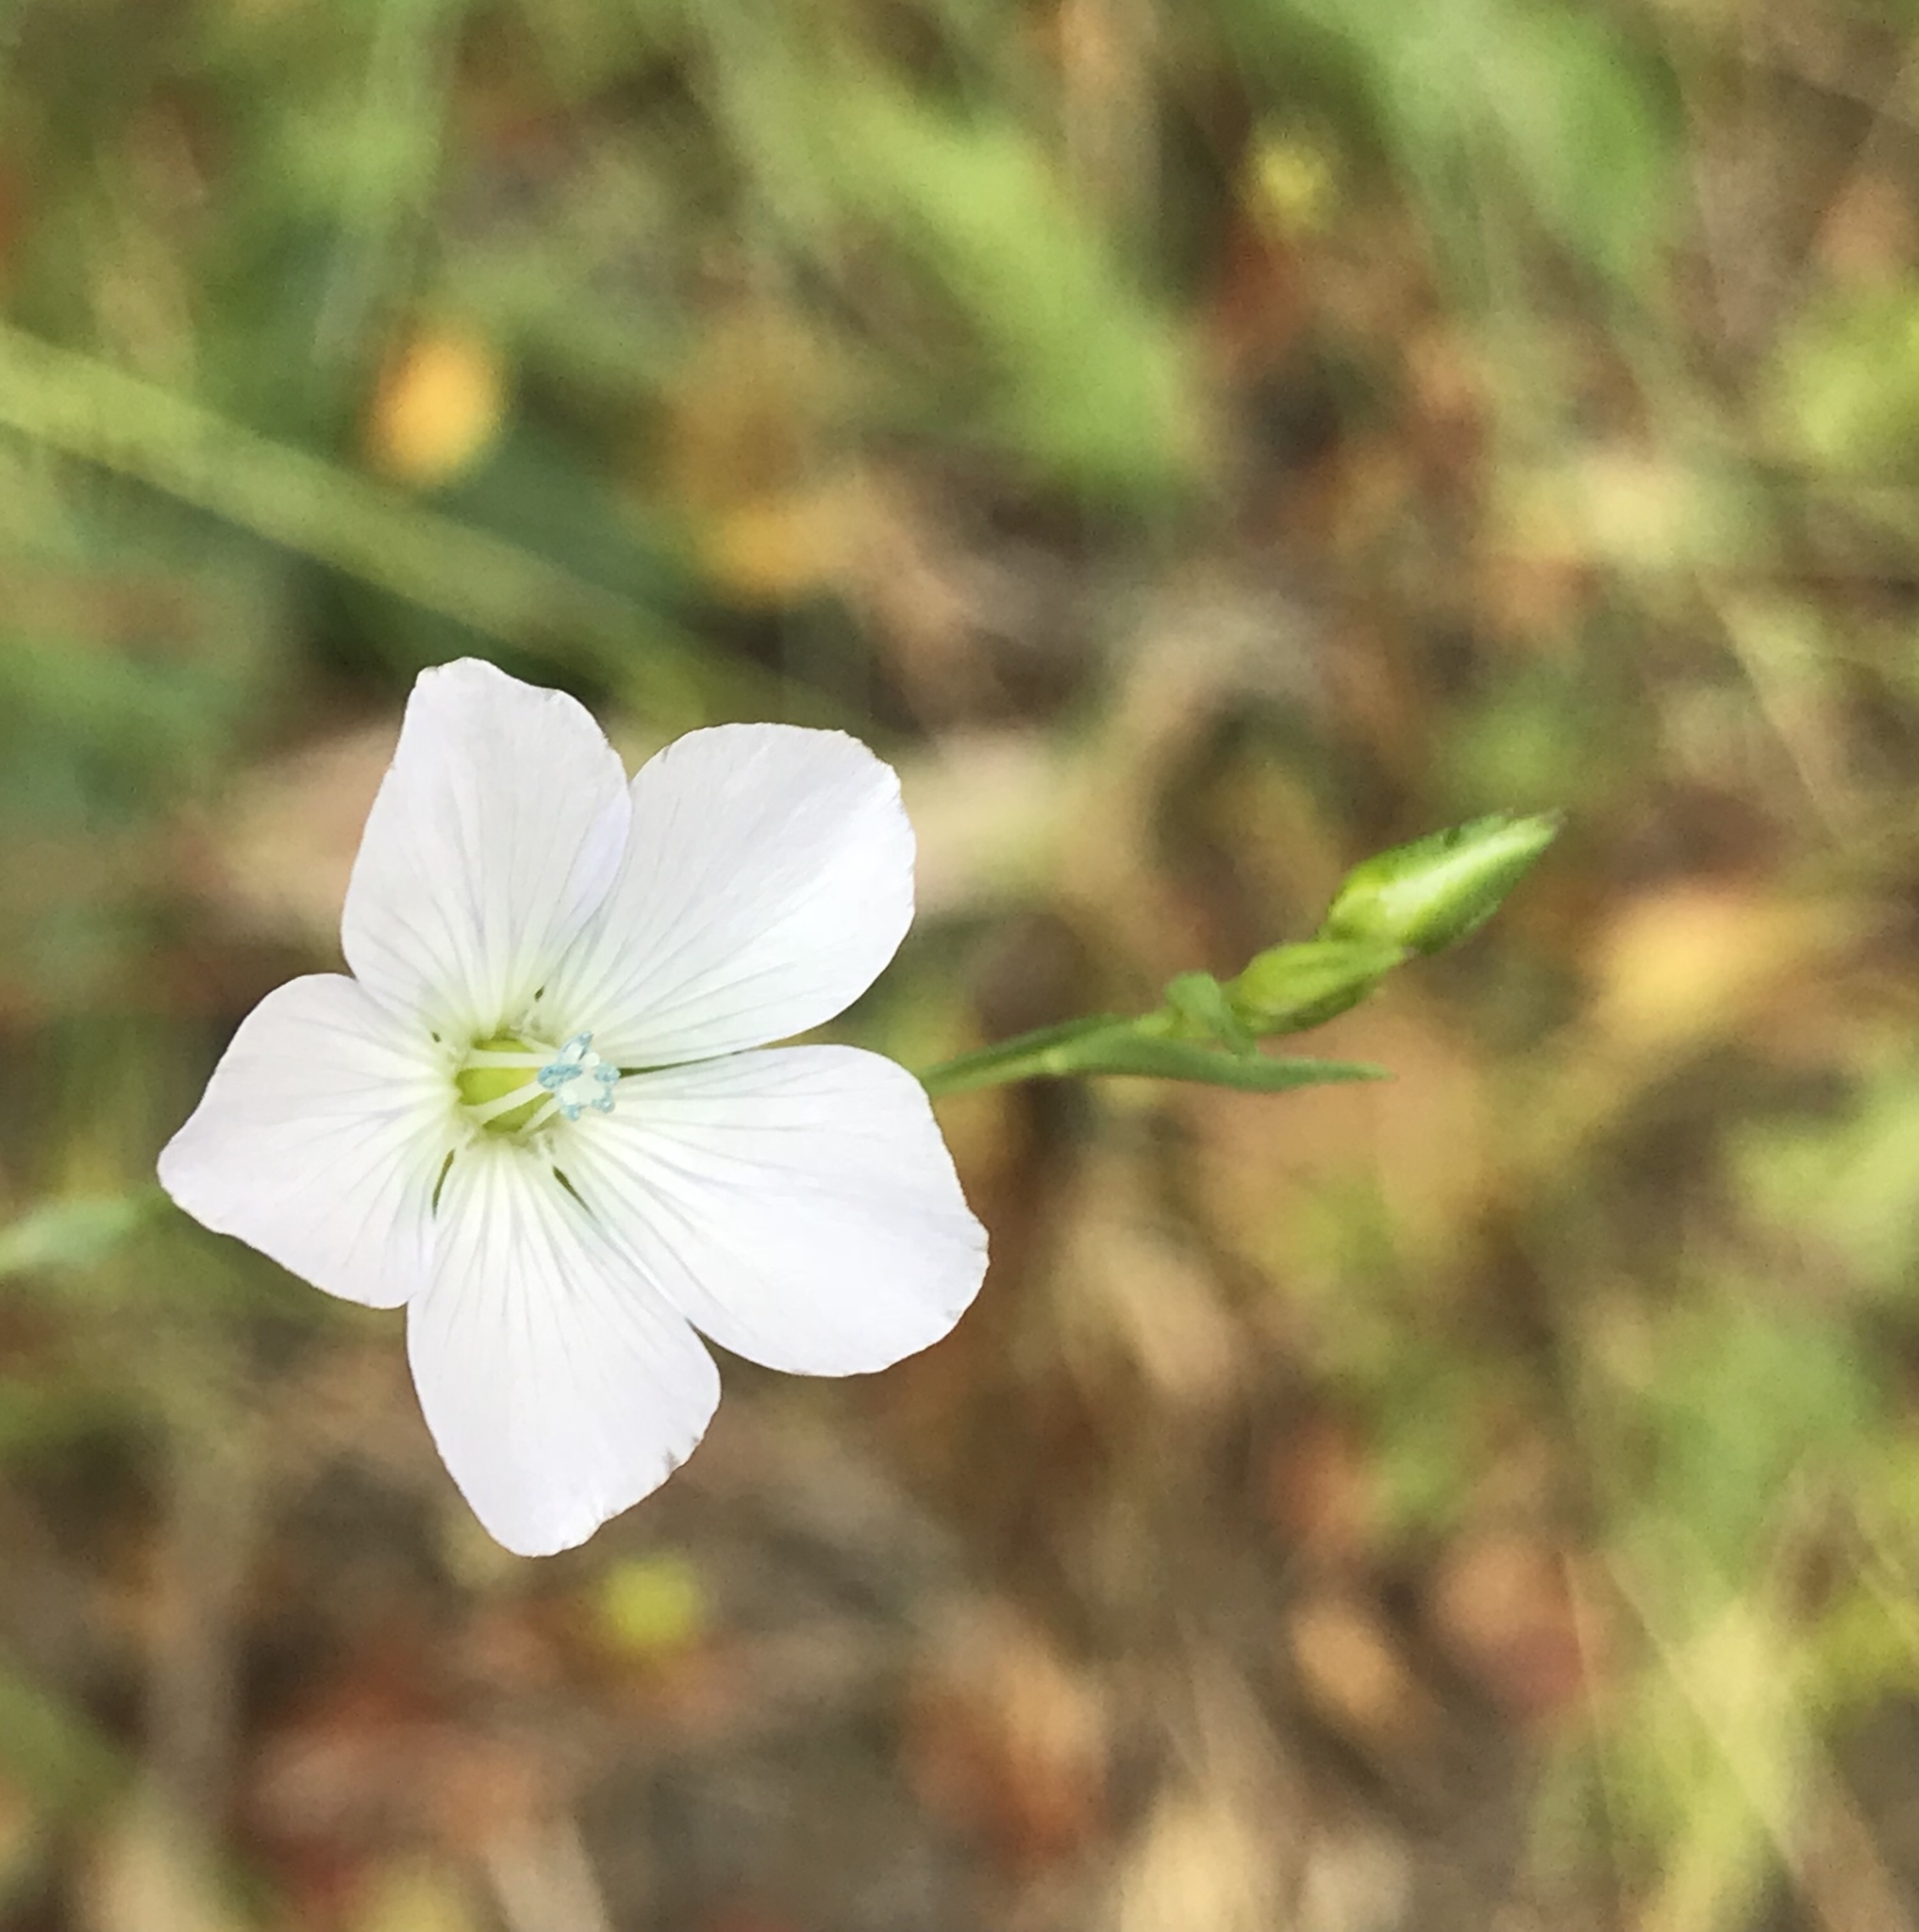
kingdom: Plantae
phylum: Tracheophyta
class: Magnoliopsida
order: Malpighiales
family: Linaceae
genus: Linum
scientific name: Linum bienne
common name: Pale flax
